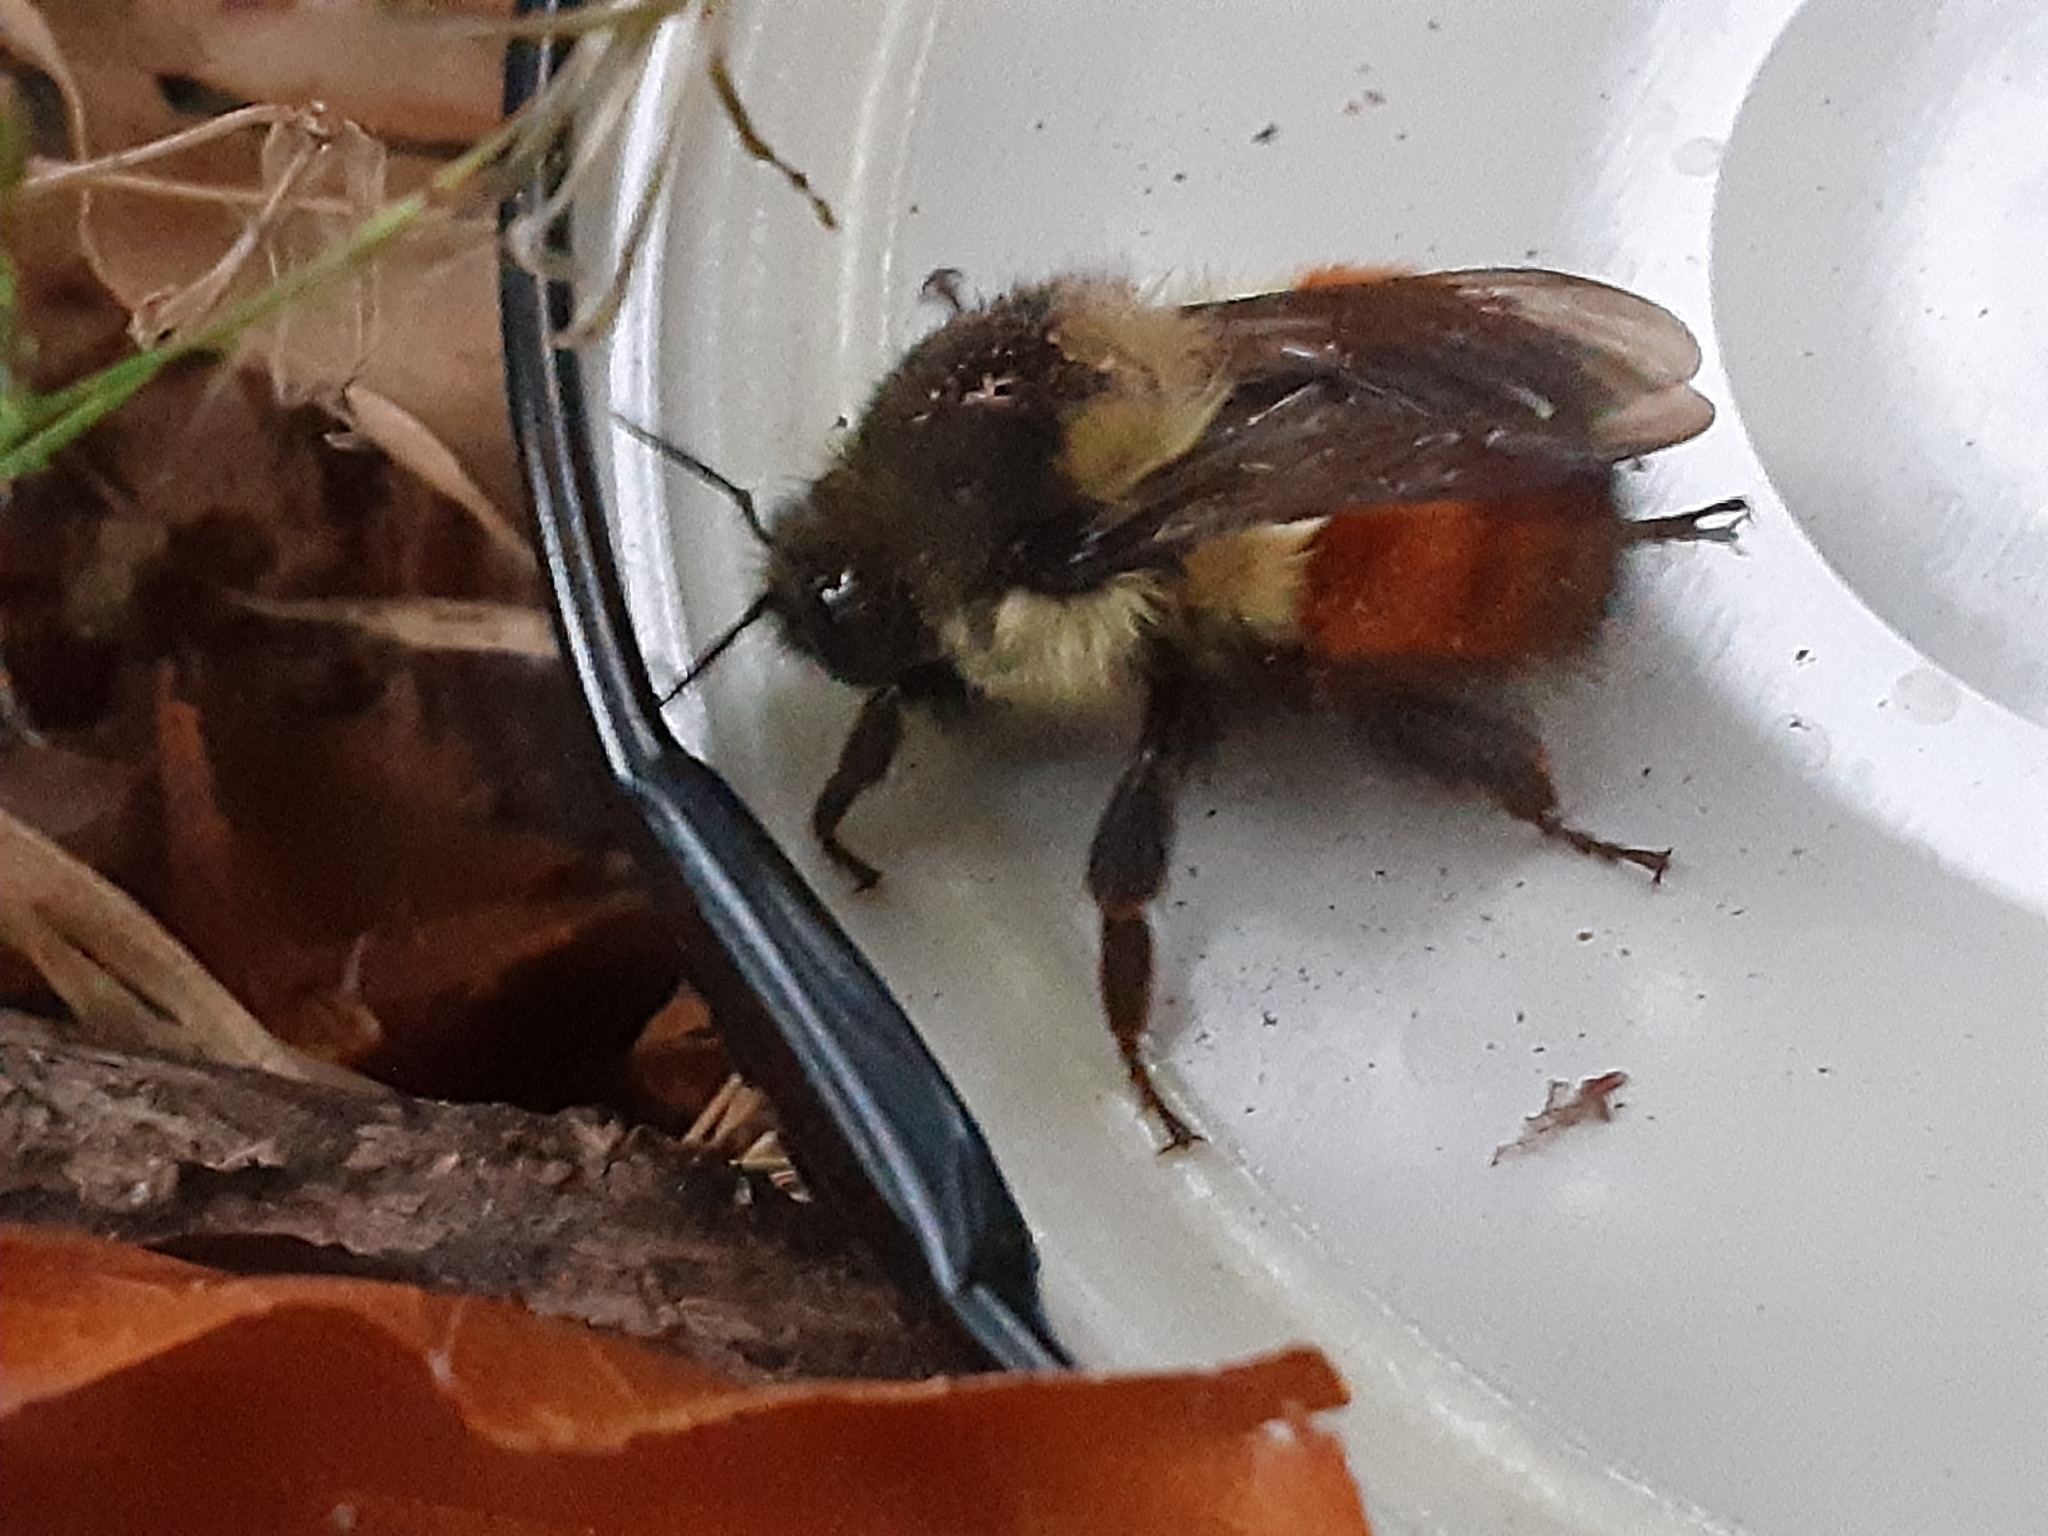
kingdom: Animalia
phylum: Arthropoda
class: Insecta
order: Hymenoptera
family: Apidae
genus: Bombus
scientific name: Bombus melanopygus
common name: Black tail bumble bee
